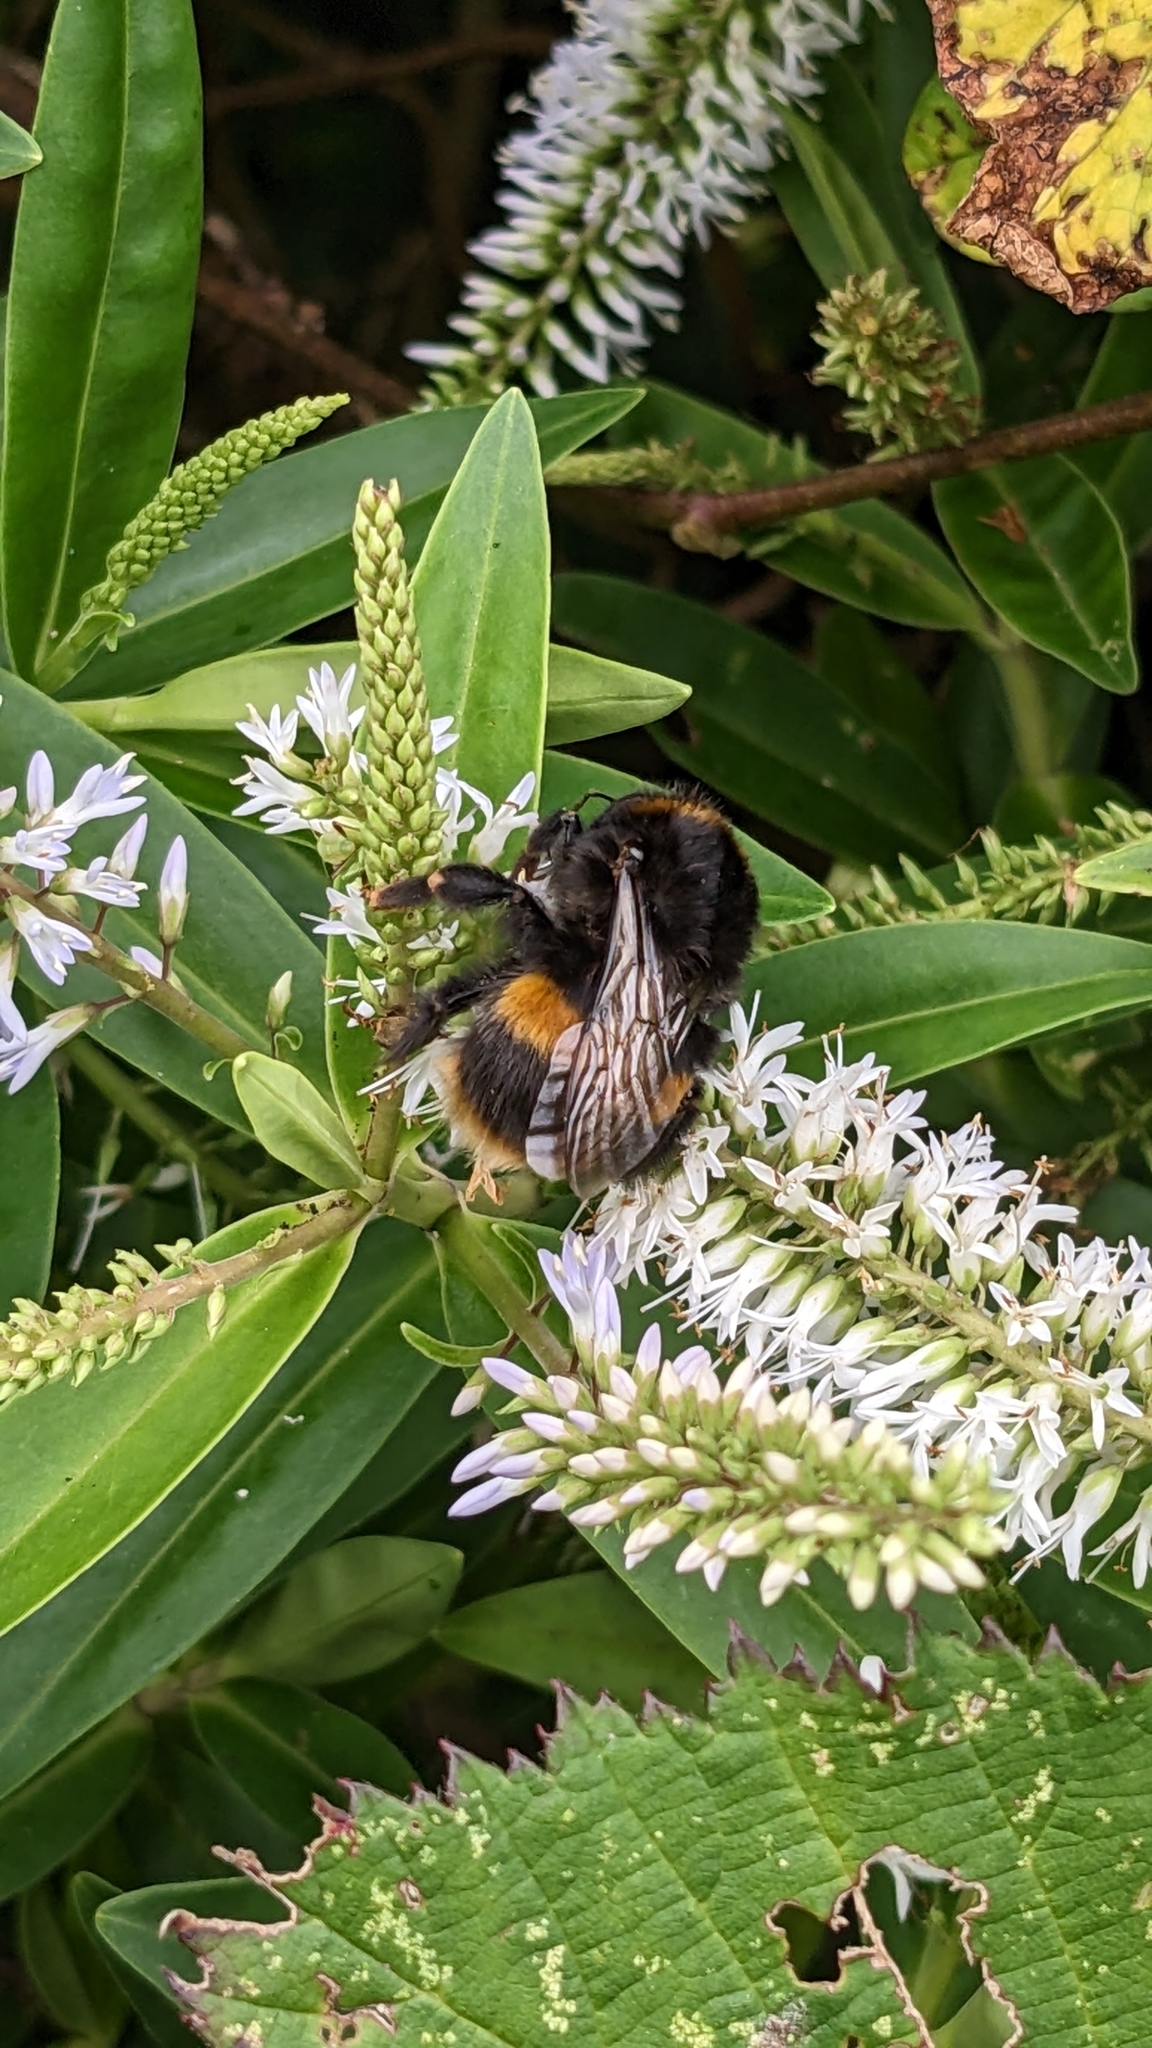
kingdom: Animalia
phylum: Arthropoda
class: Insecta
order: Hymenoptera
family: Apidae
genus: Bombus
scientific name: Bombus terrestris
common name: Buff-tailed bumblebee
